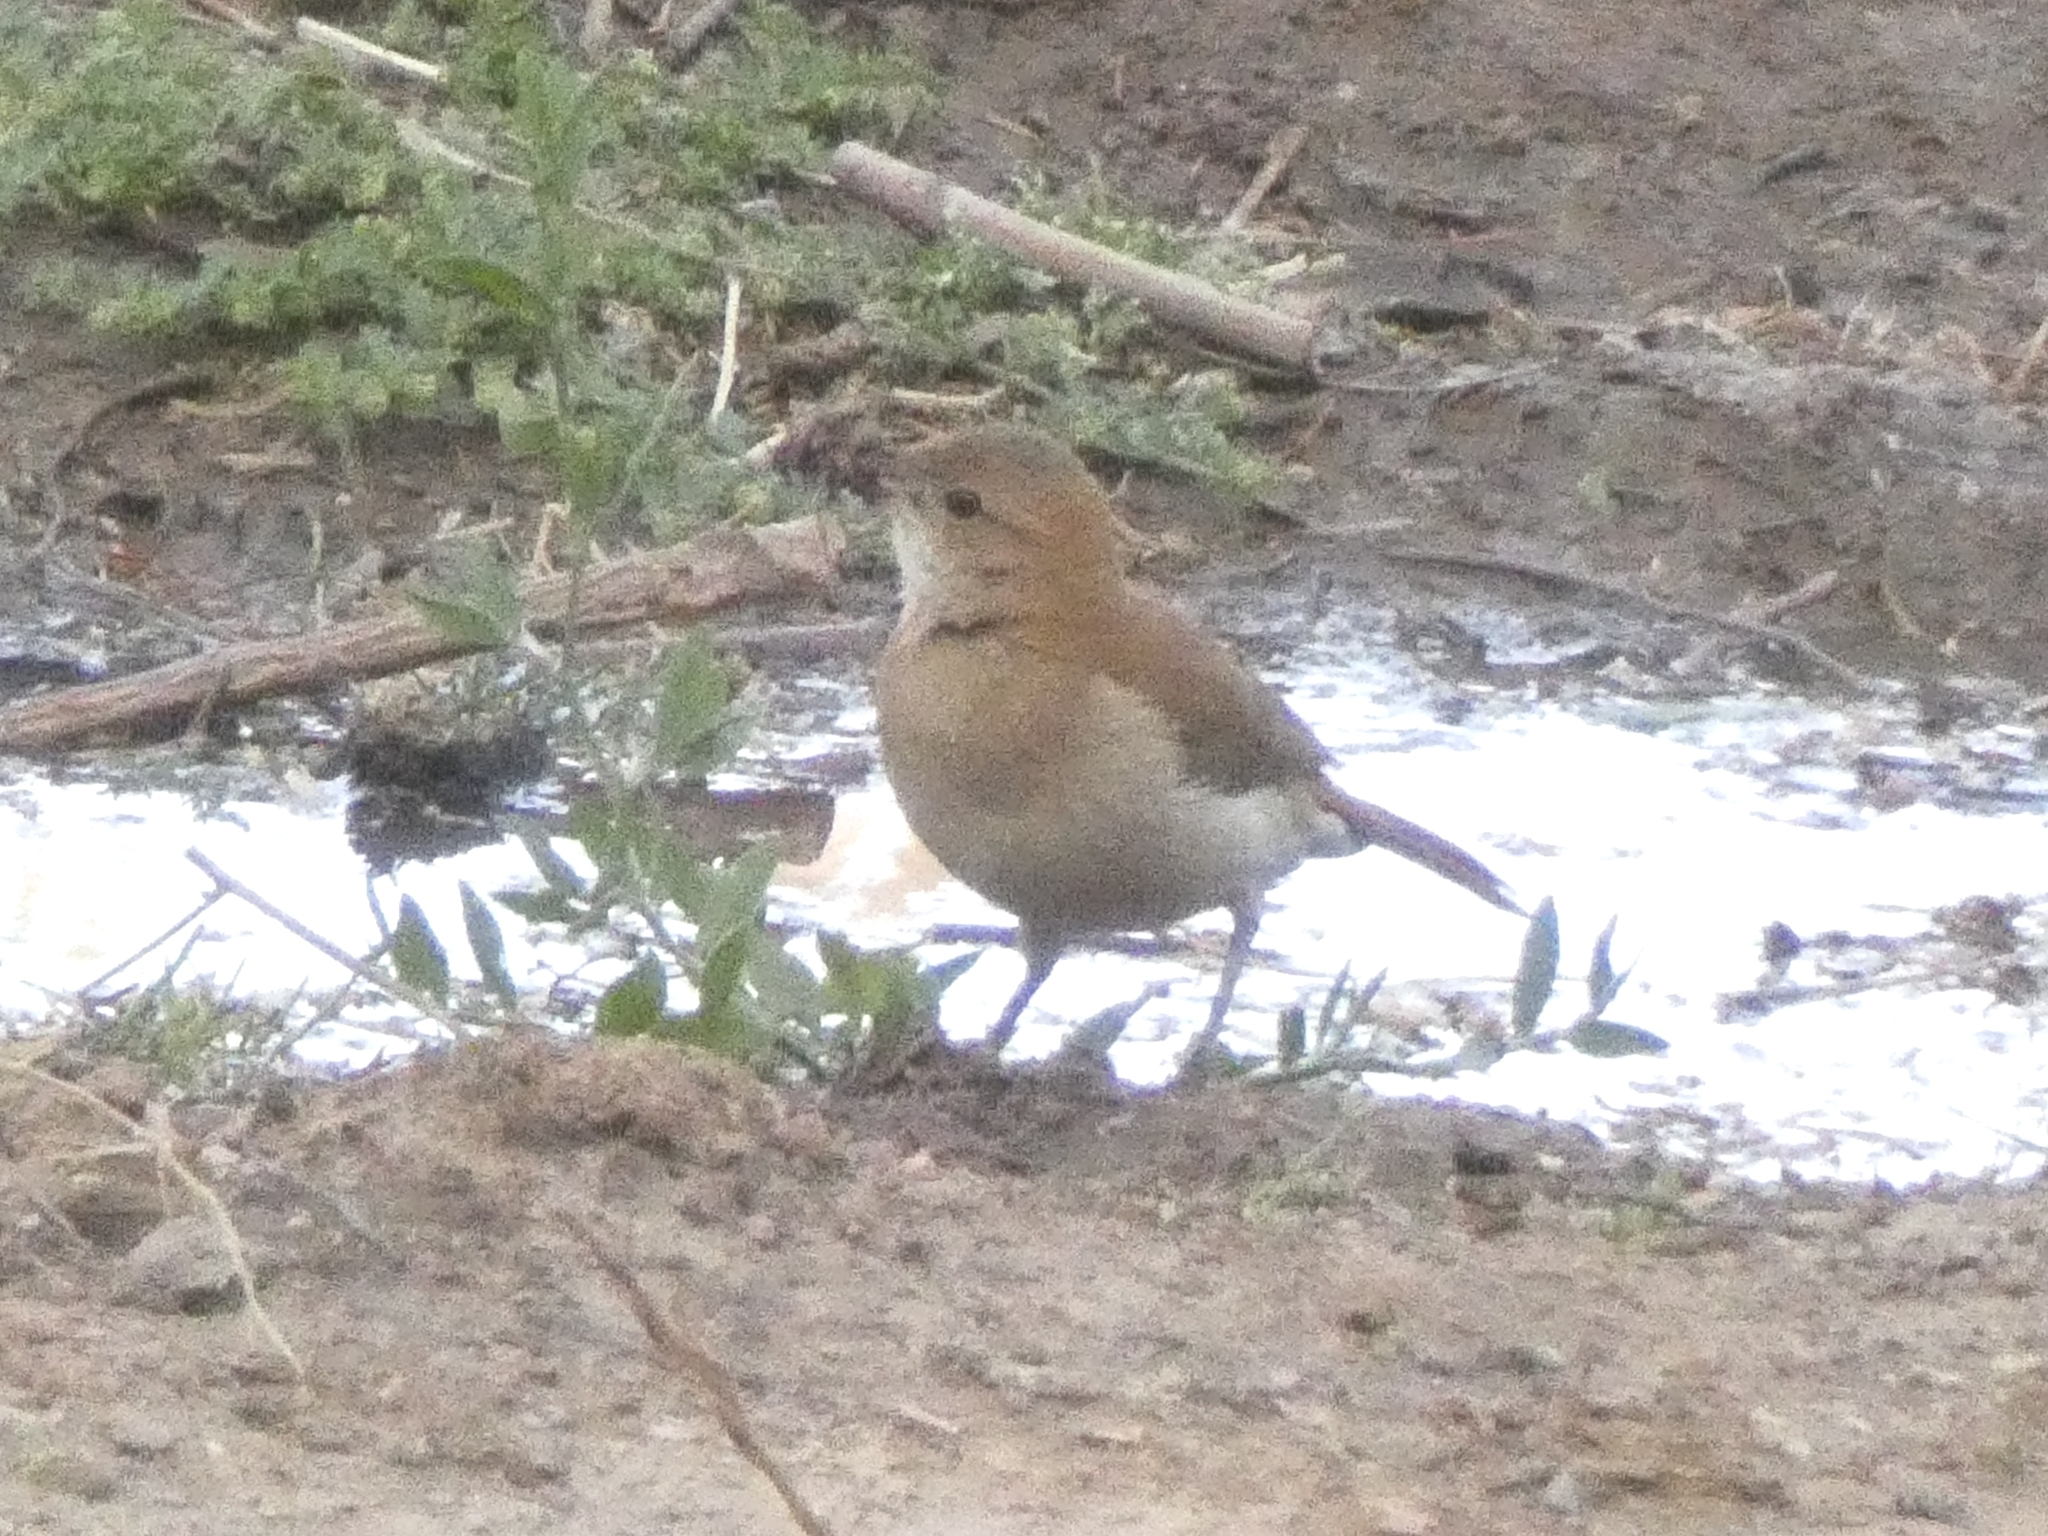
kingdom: Animalia
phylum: Chordata
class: Aves
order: Passeriformes
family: Furnariidae
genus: Furnarius
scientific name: Furnarius rufus
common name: Rufous hornero
